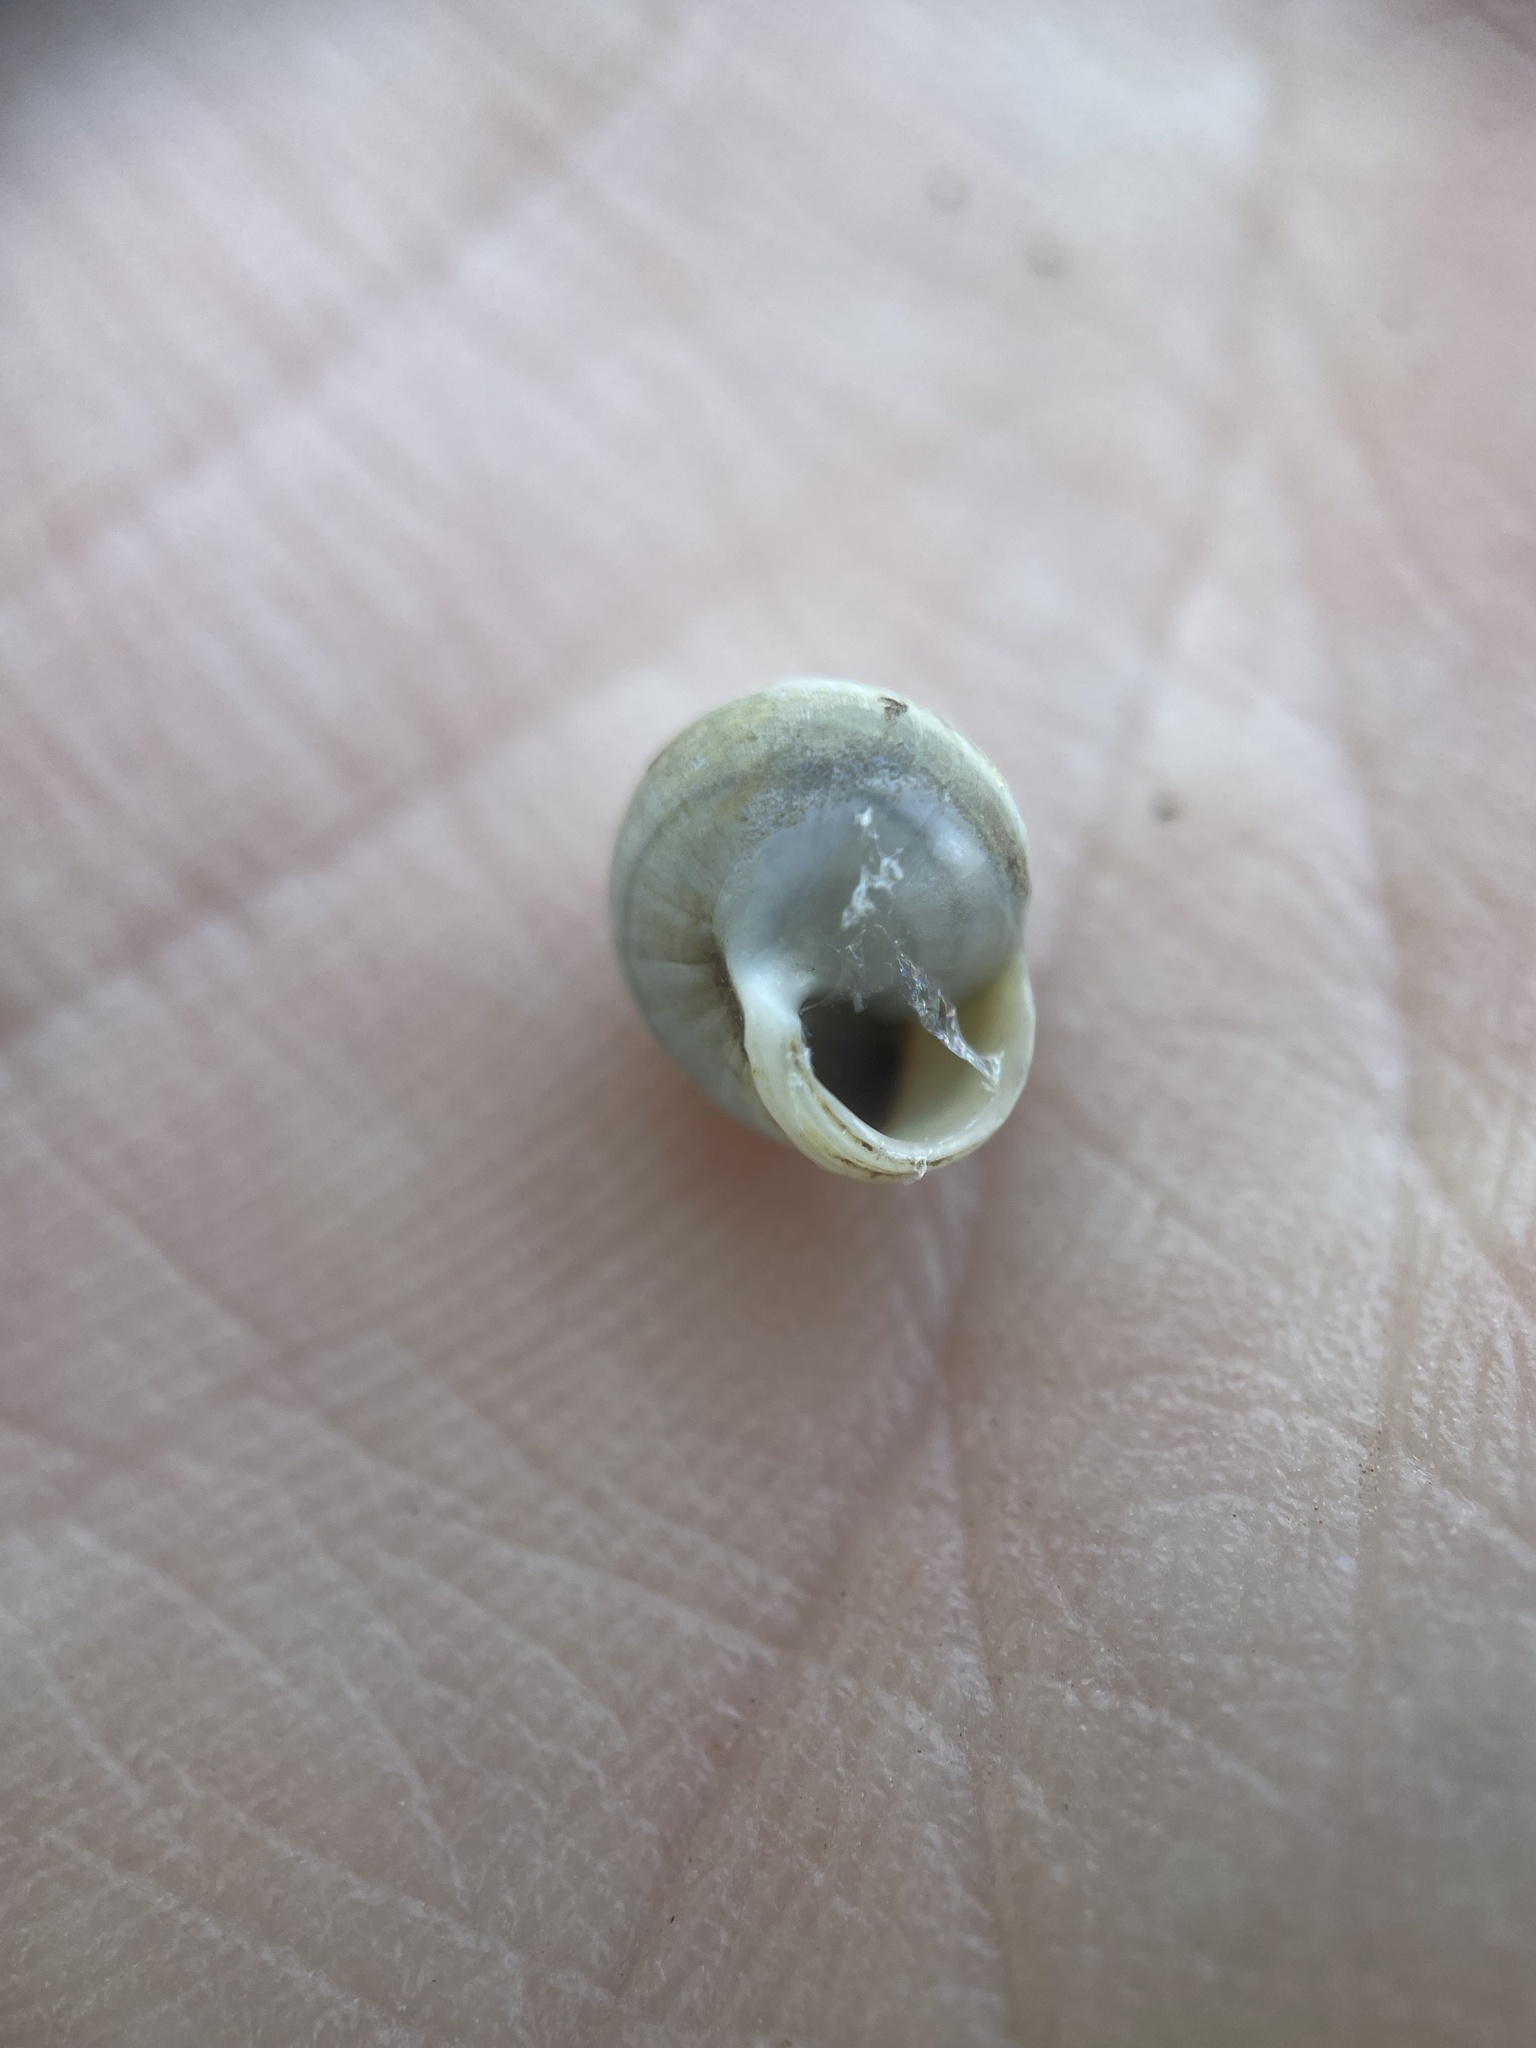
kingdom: Animalia
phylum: Mollusca
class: Gastropoda
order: Cycloneritida
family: Helicinidae
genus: Helicina
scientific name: Helicina orbiculata
